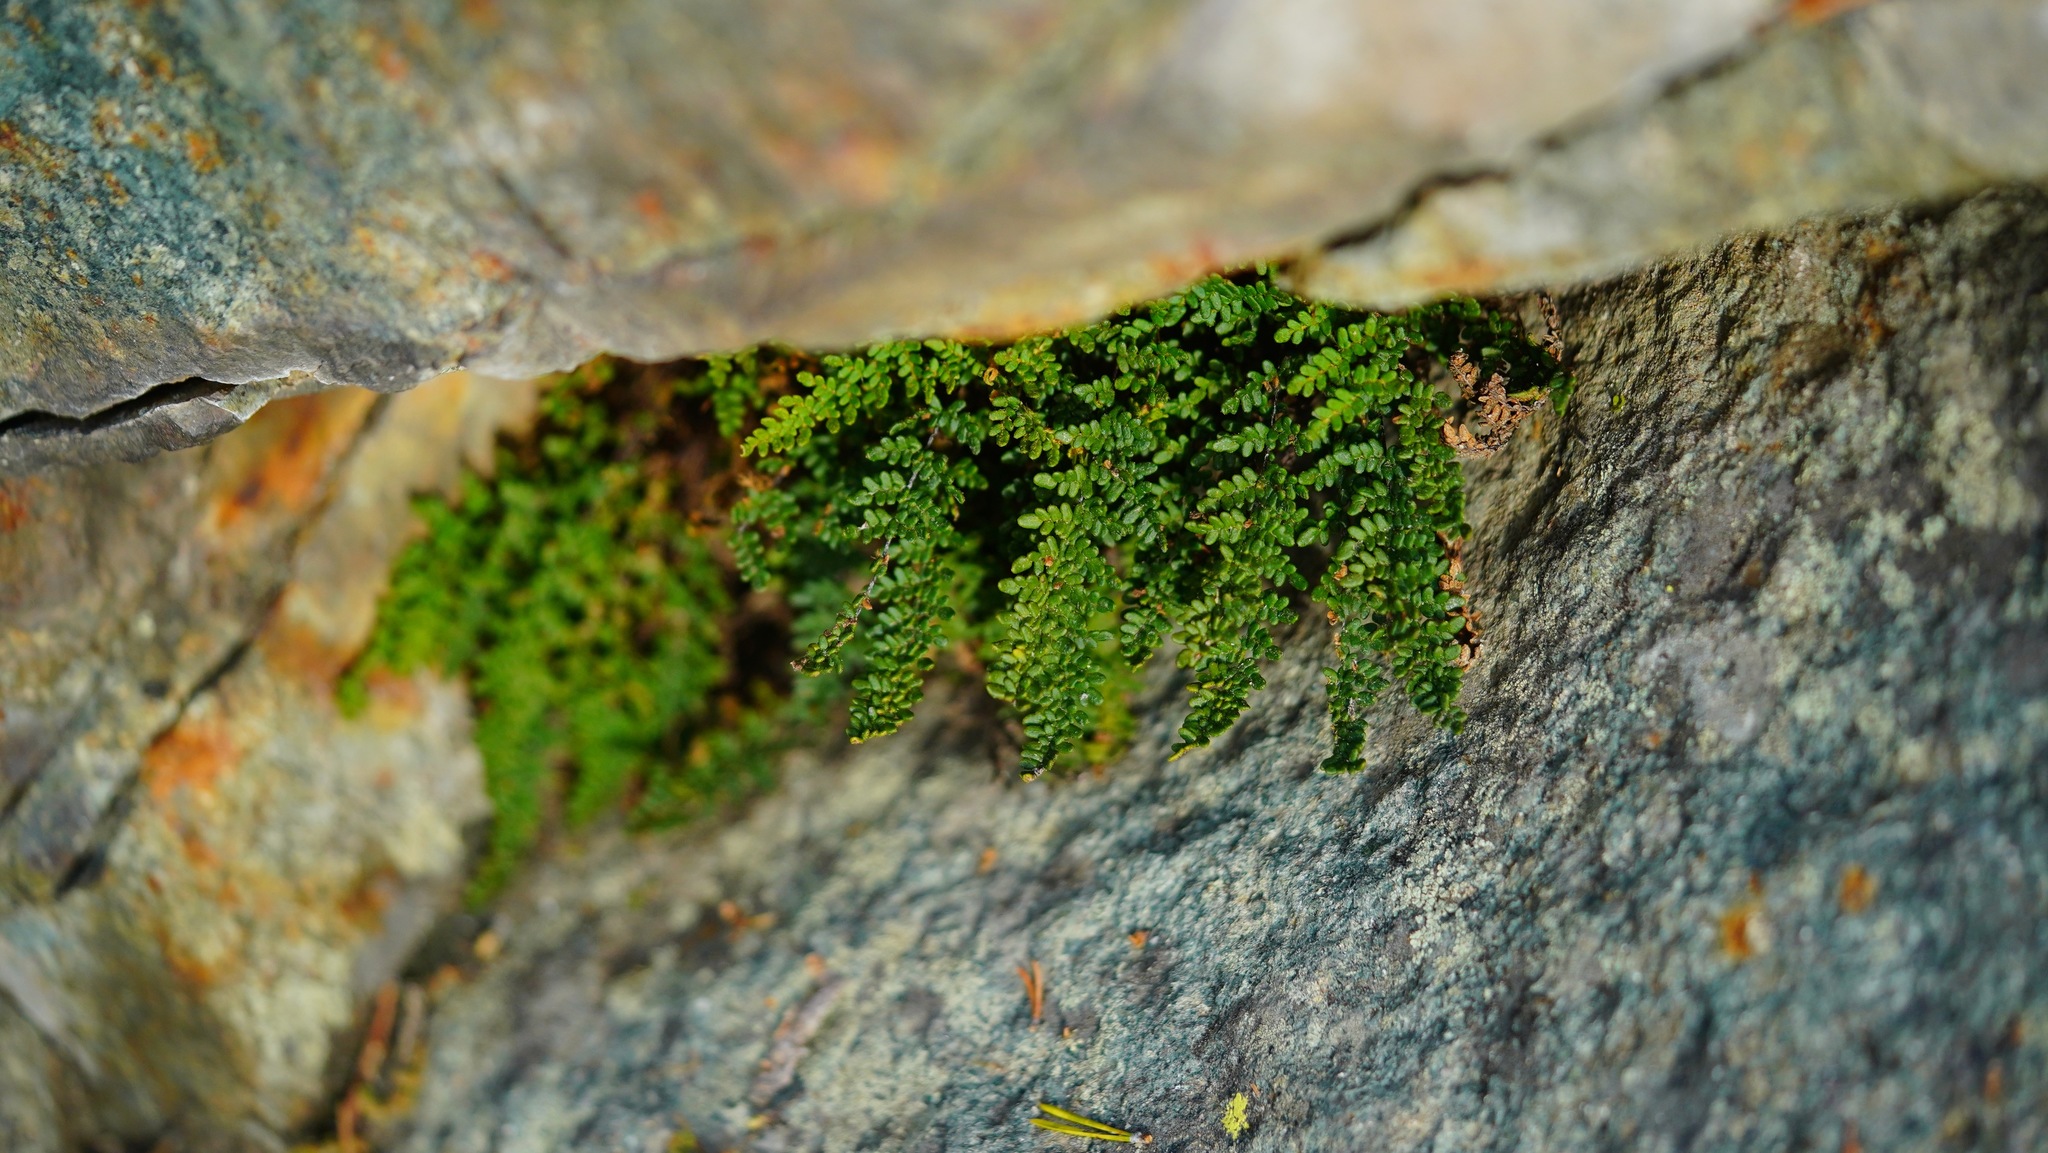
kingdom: Plantae
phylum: Tracheophyta
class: Polypodiopsida
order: Polypodiales
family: Pteridaceae
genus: Myriopteris
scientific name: Myriopteris gracillima
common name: Lace fern
